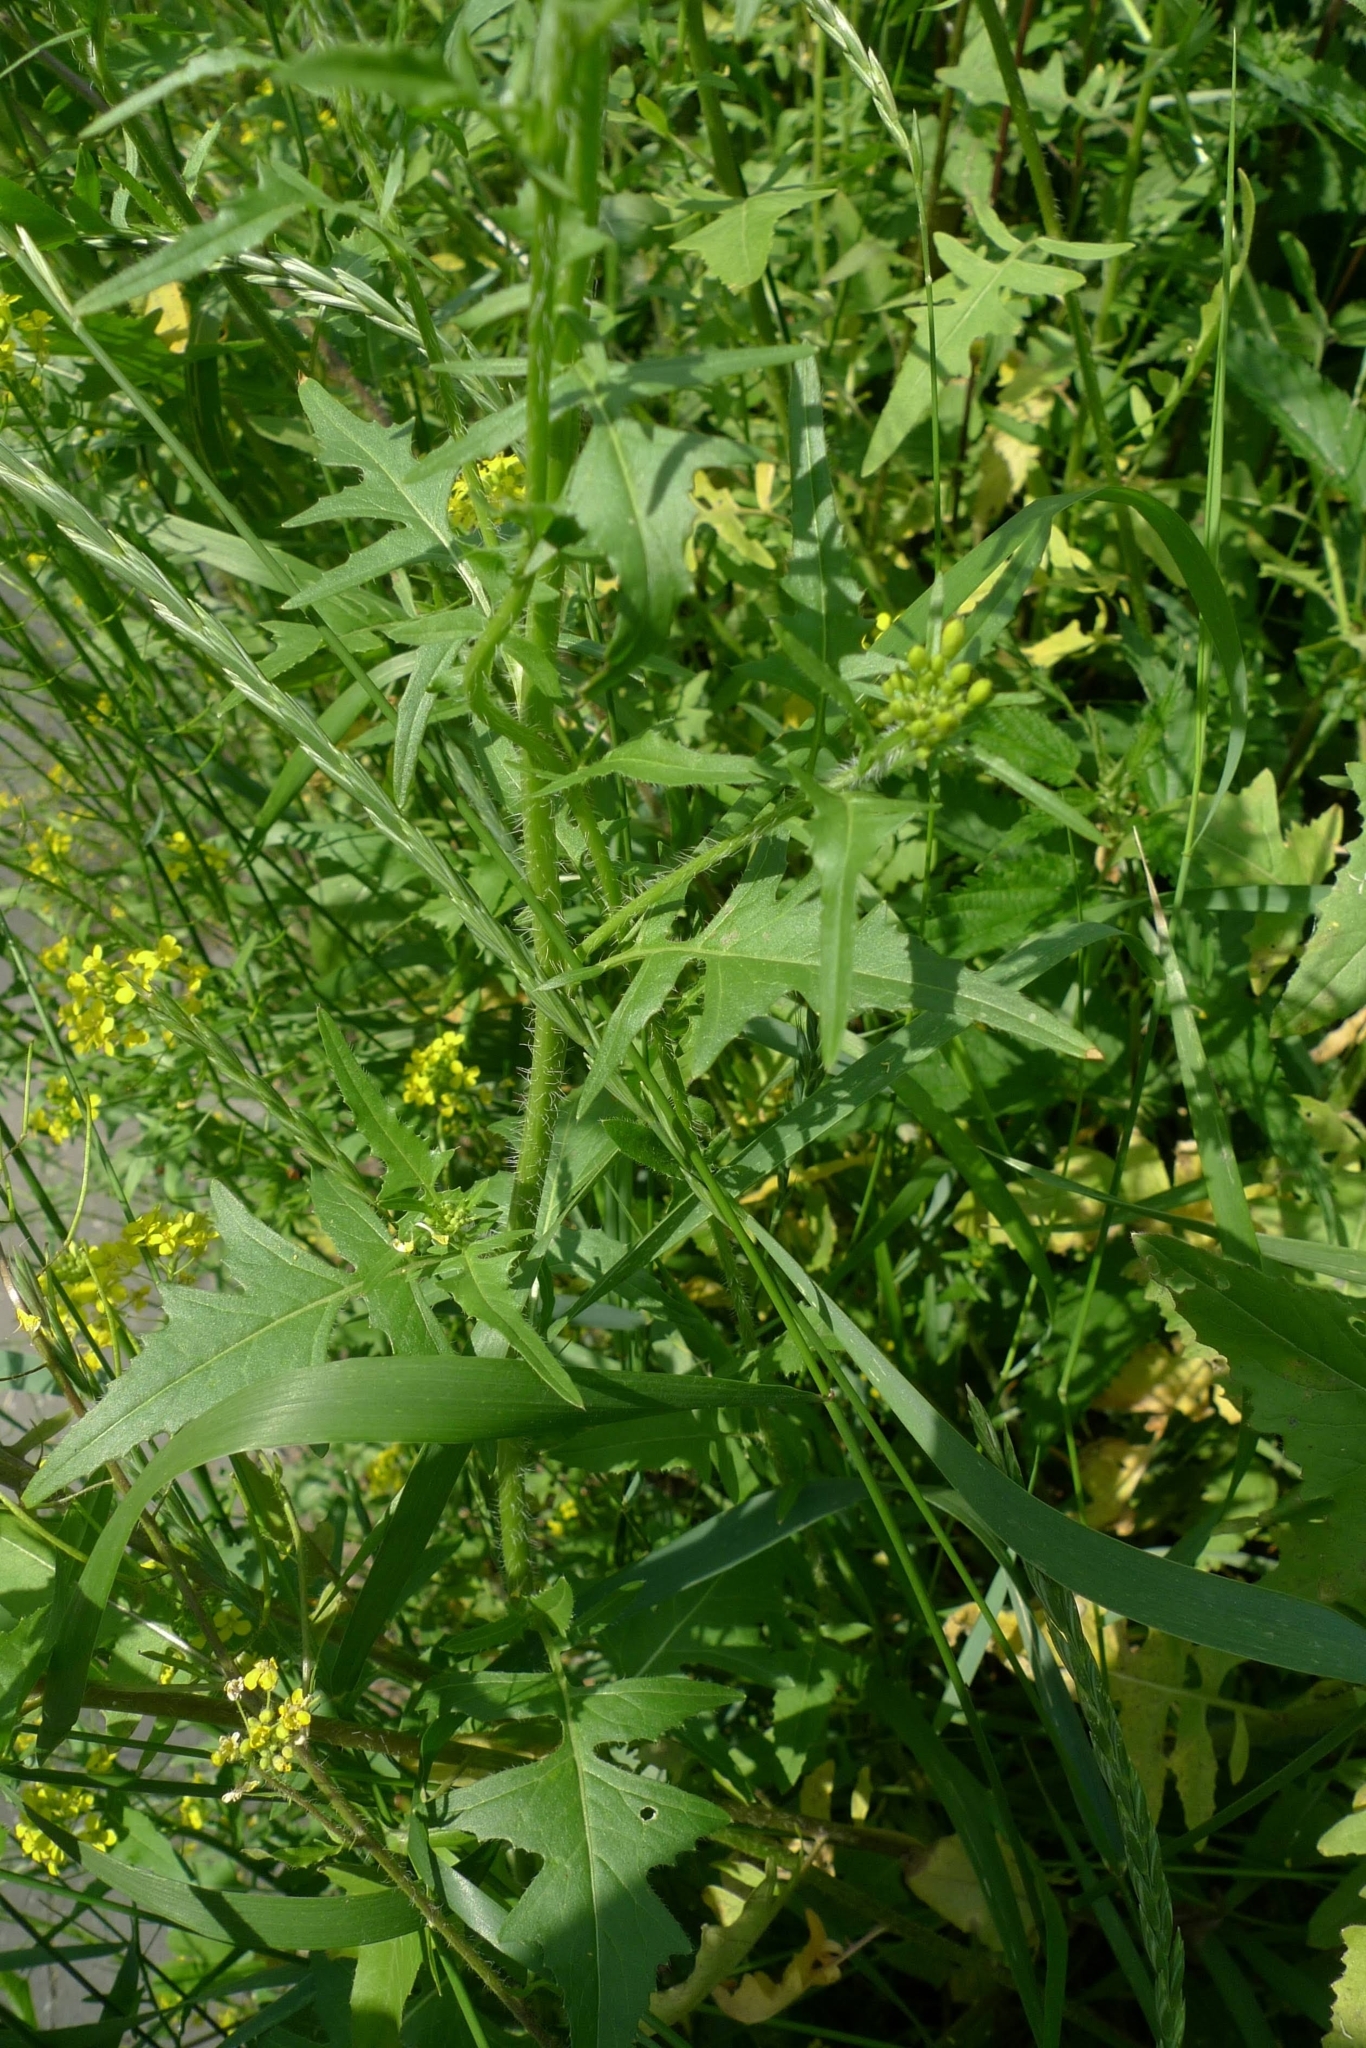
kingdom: Plantae
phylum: Tracheophyta
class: Magnoliopsida
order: Brassicales
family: Brassicaceae
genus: Sisymbrium
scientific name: Sisymbrium loeselii
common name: False london-rocket
